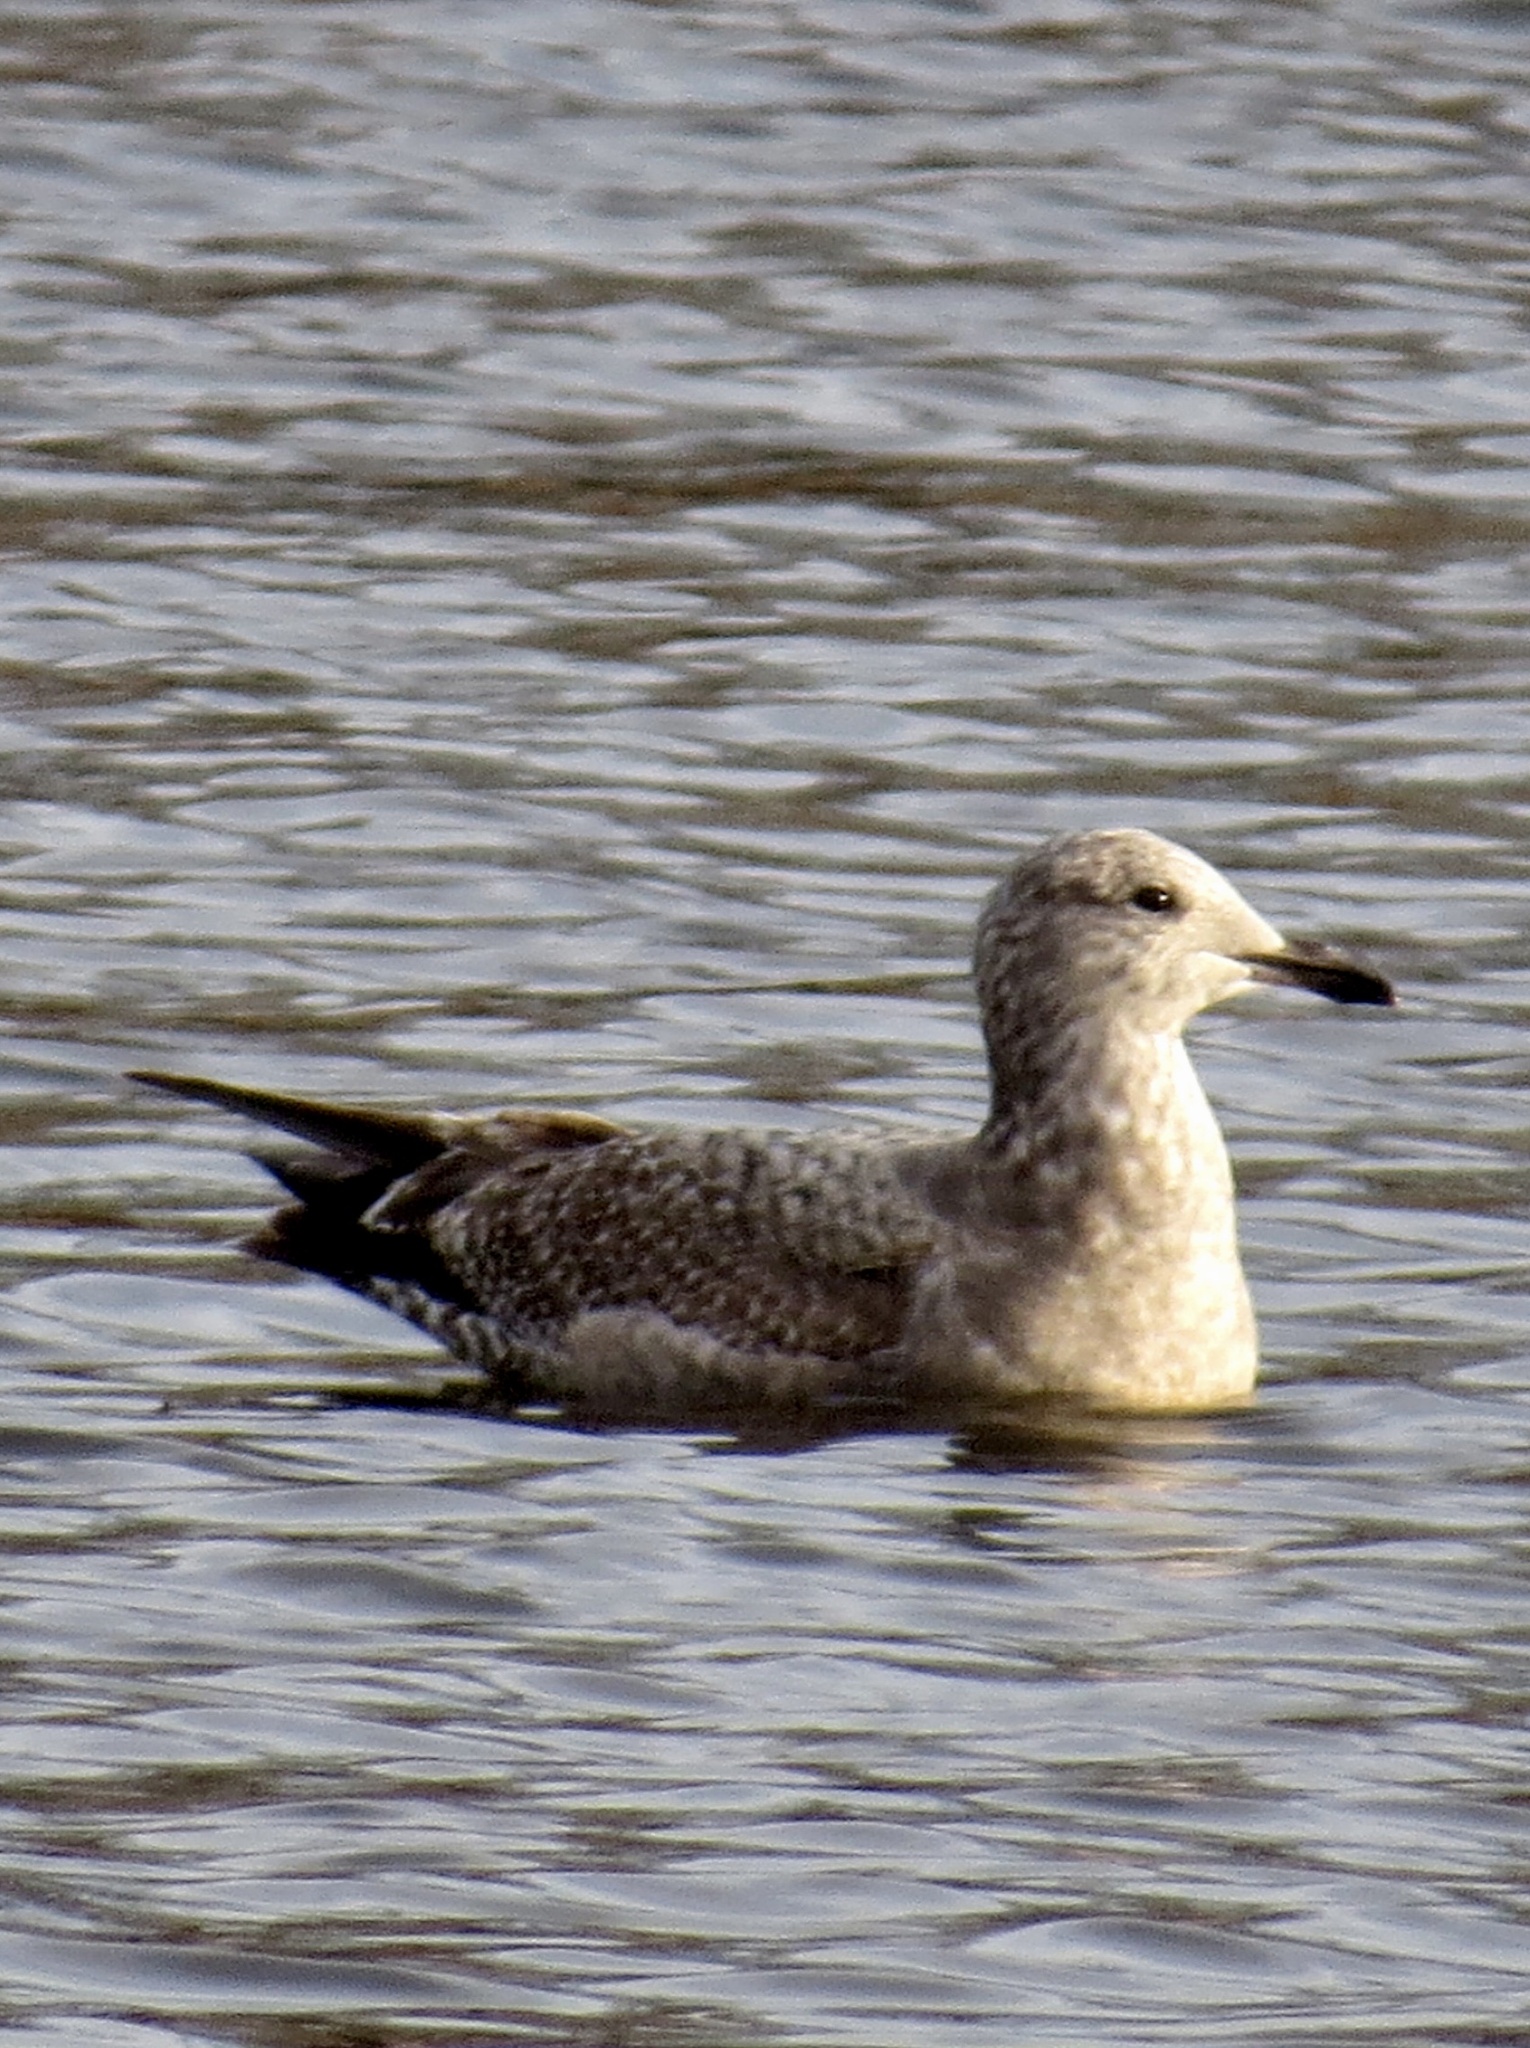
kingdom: Animalia
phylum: Chordata
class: Aves
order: Charadriiformes
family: Laridae
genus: Larus
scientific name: Larus argentatus
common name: Herring gull
